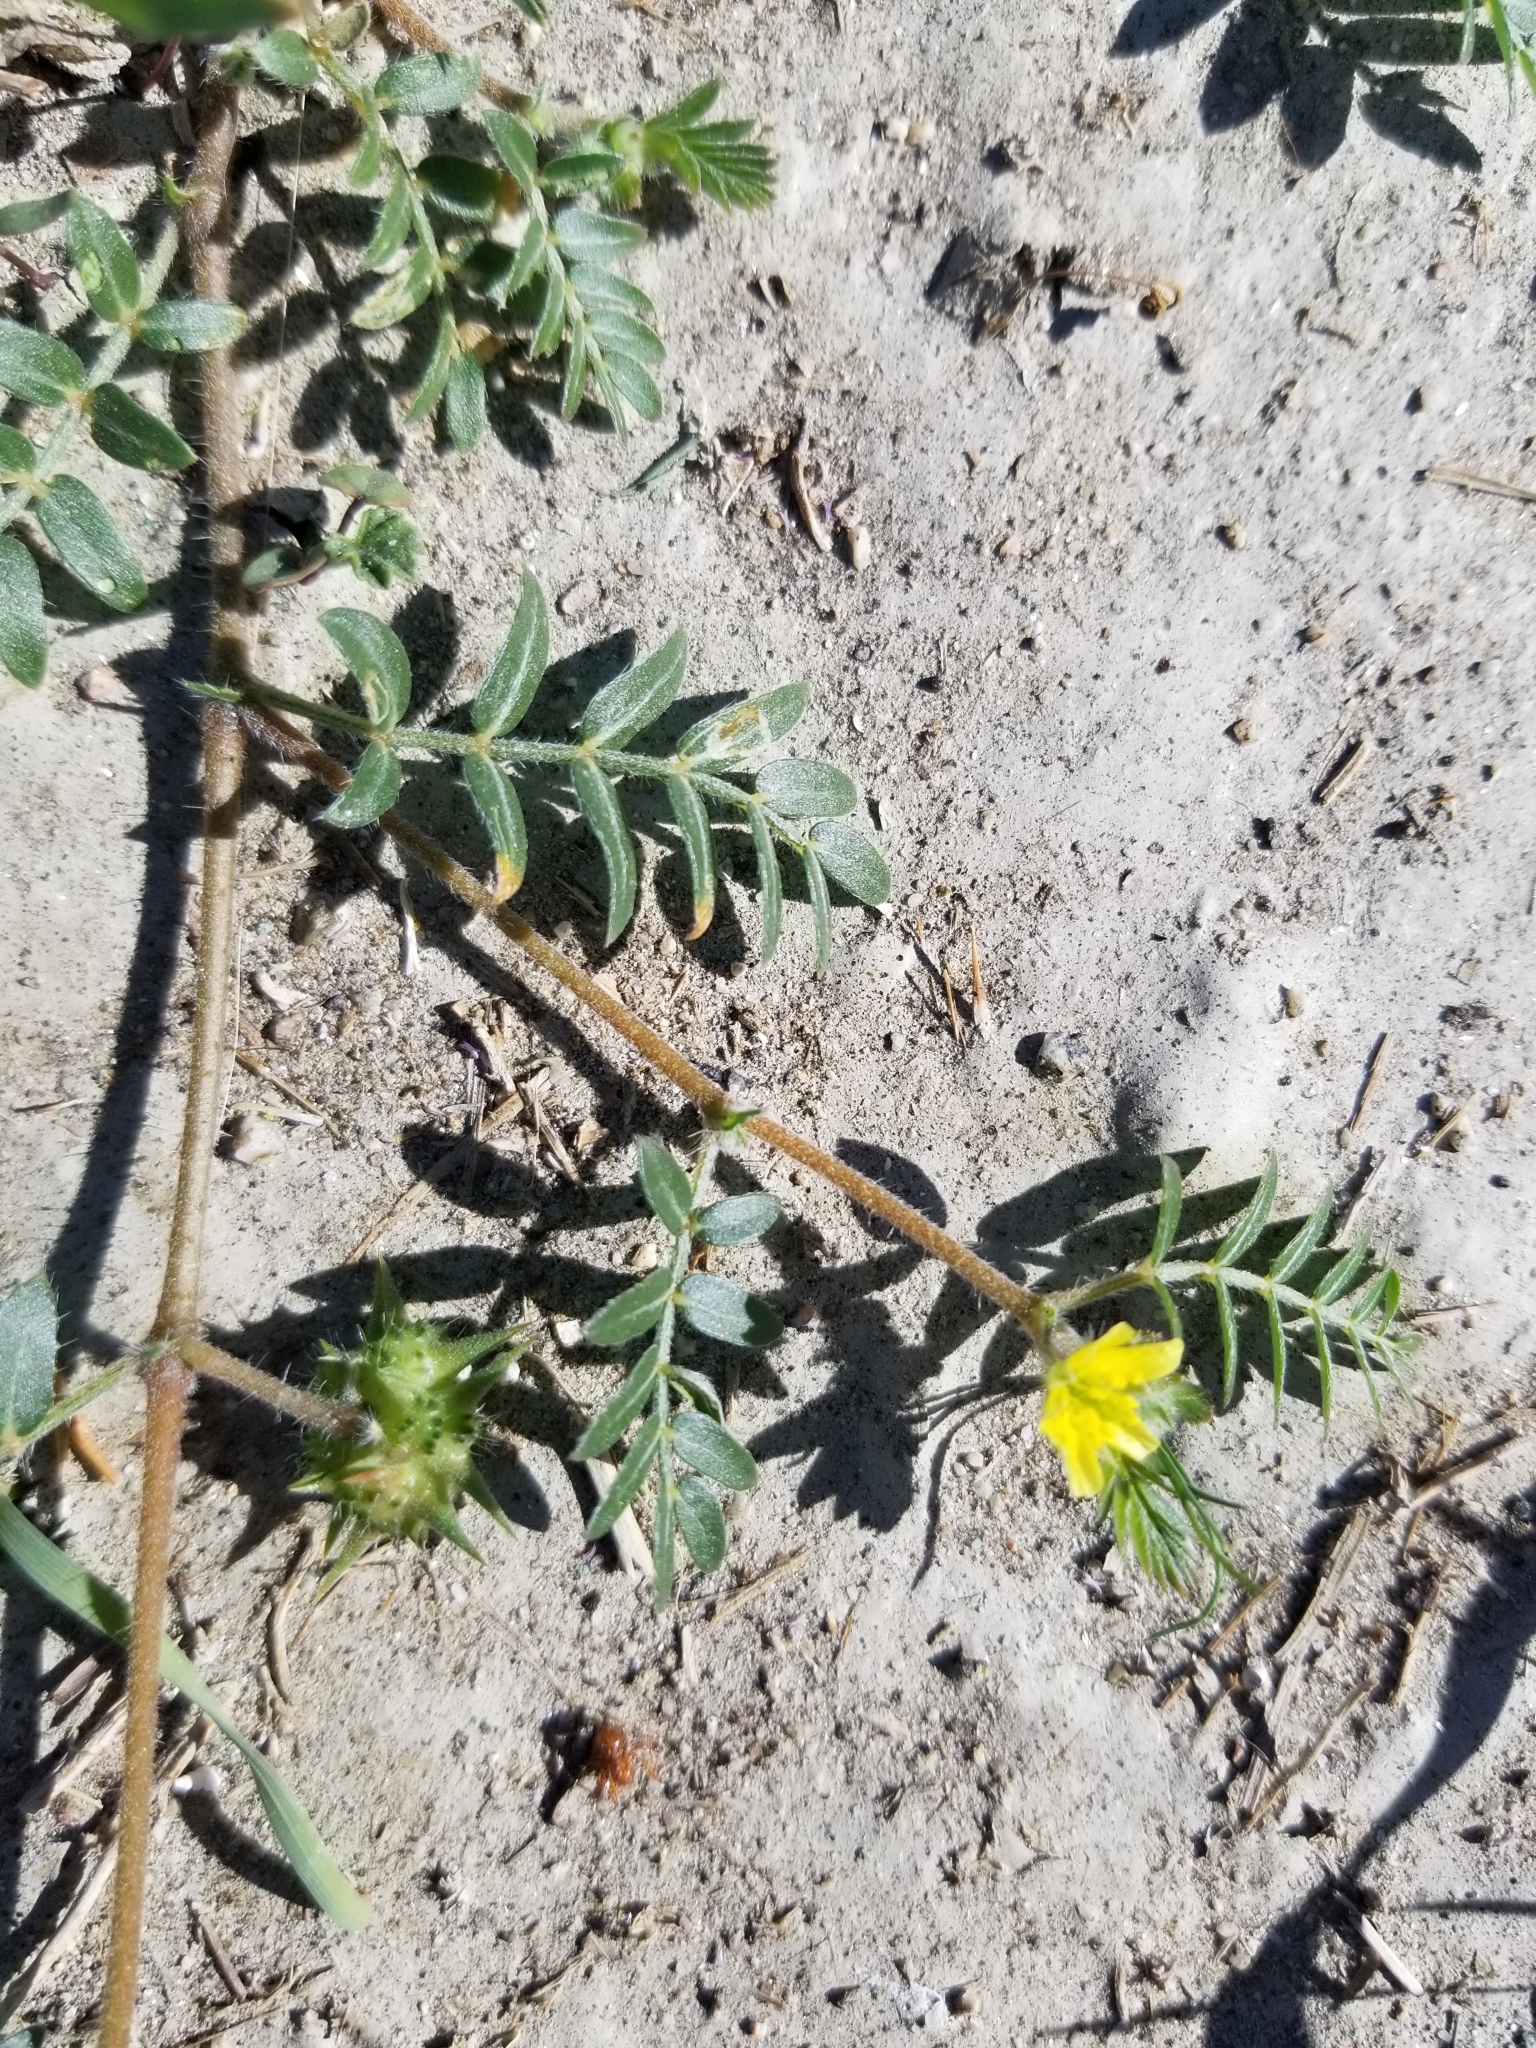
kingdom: Plantae
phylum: Tracheophyta
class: Magnoliopsida
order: Zygophyllales
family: Zygophyllaceae
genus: Tribulus
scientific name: Tribulus terrestris
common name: Puncturevine
